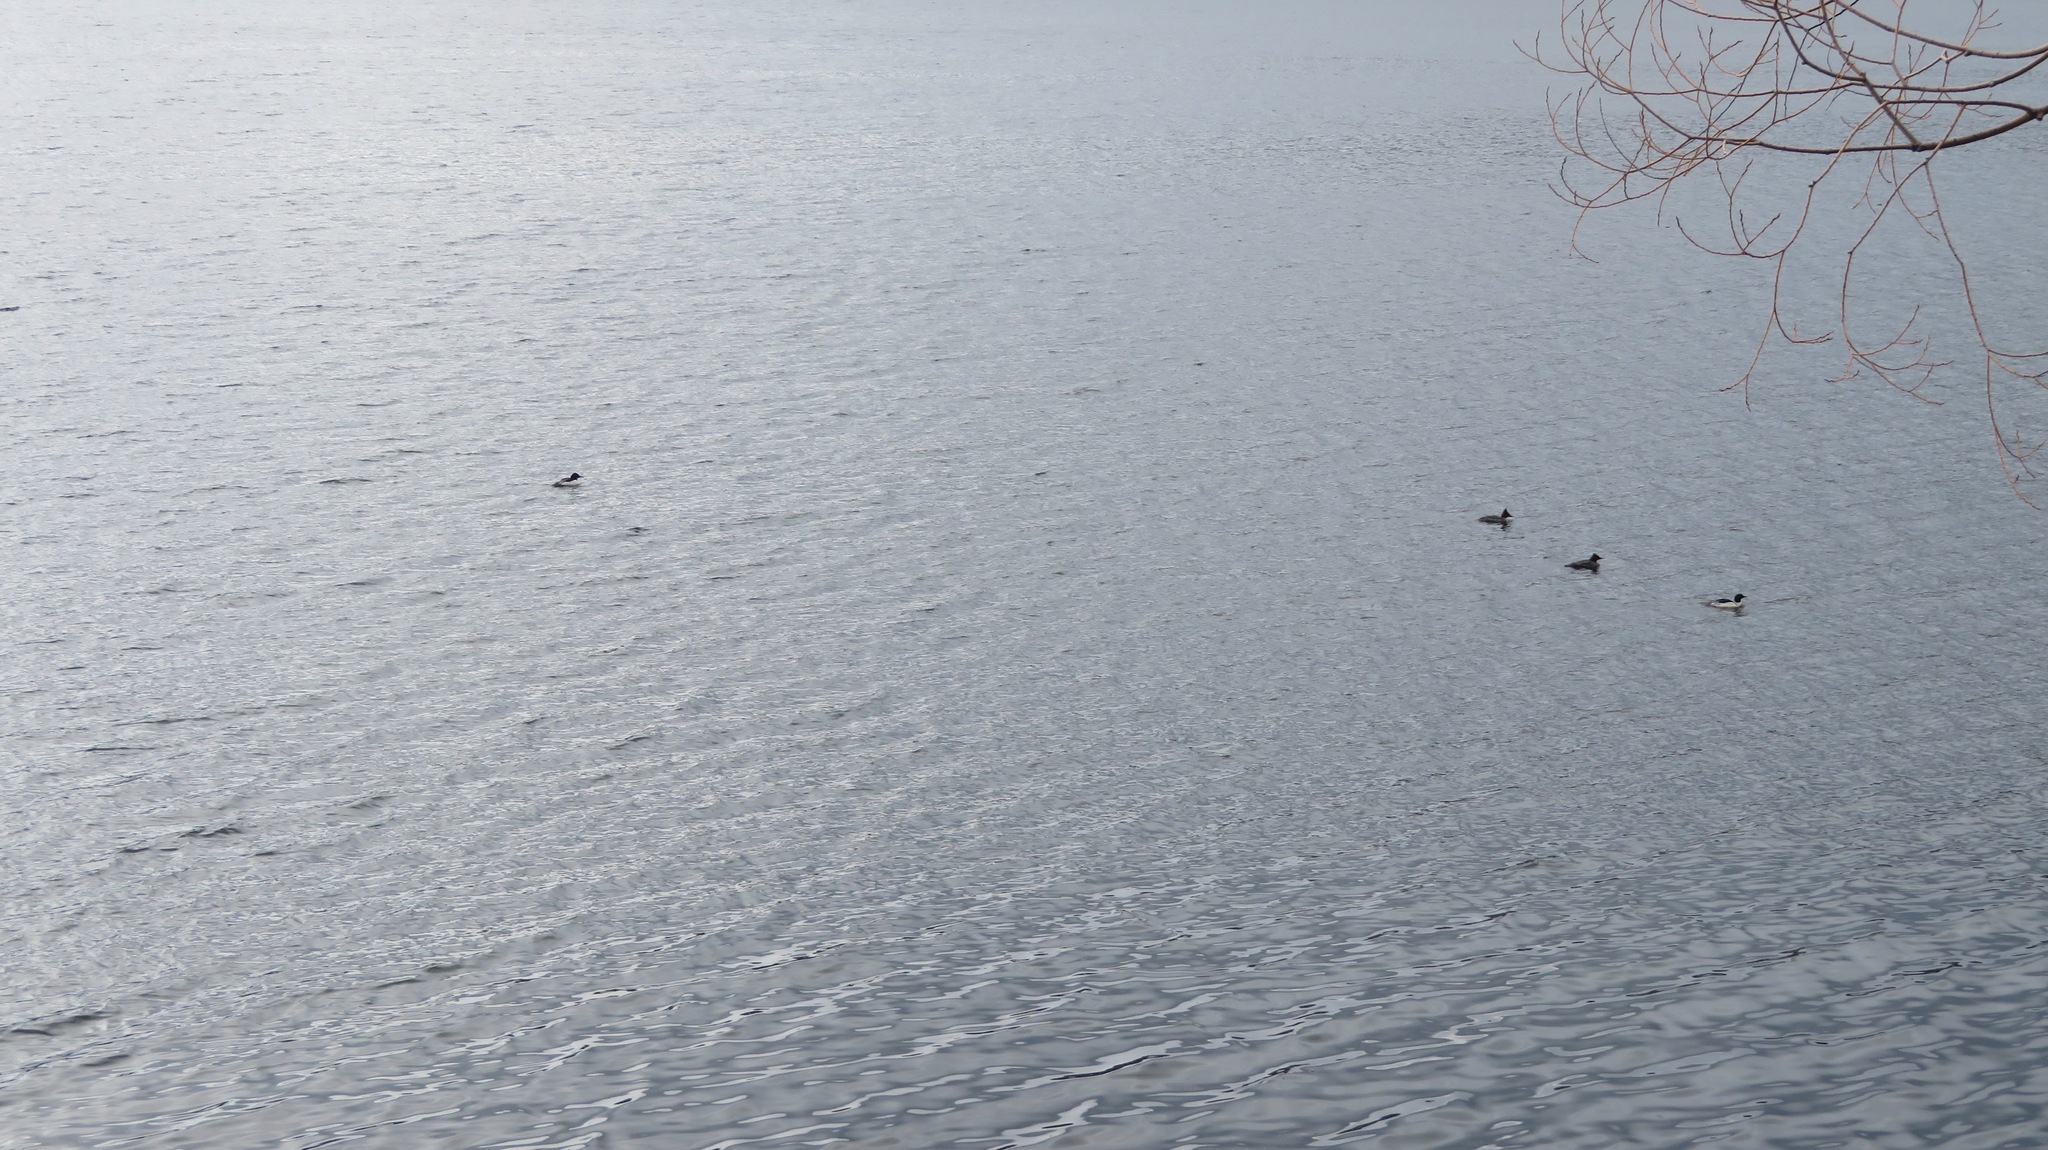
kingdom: Animalia
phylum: Chordata
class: Aves
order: Anseriformes
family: Anatidae
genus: Mergus
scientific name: Mergus merganser
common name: Common merganser
